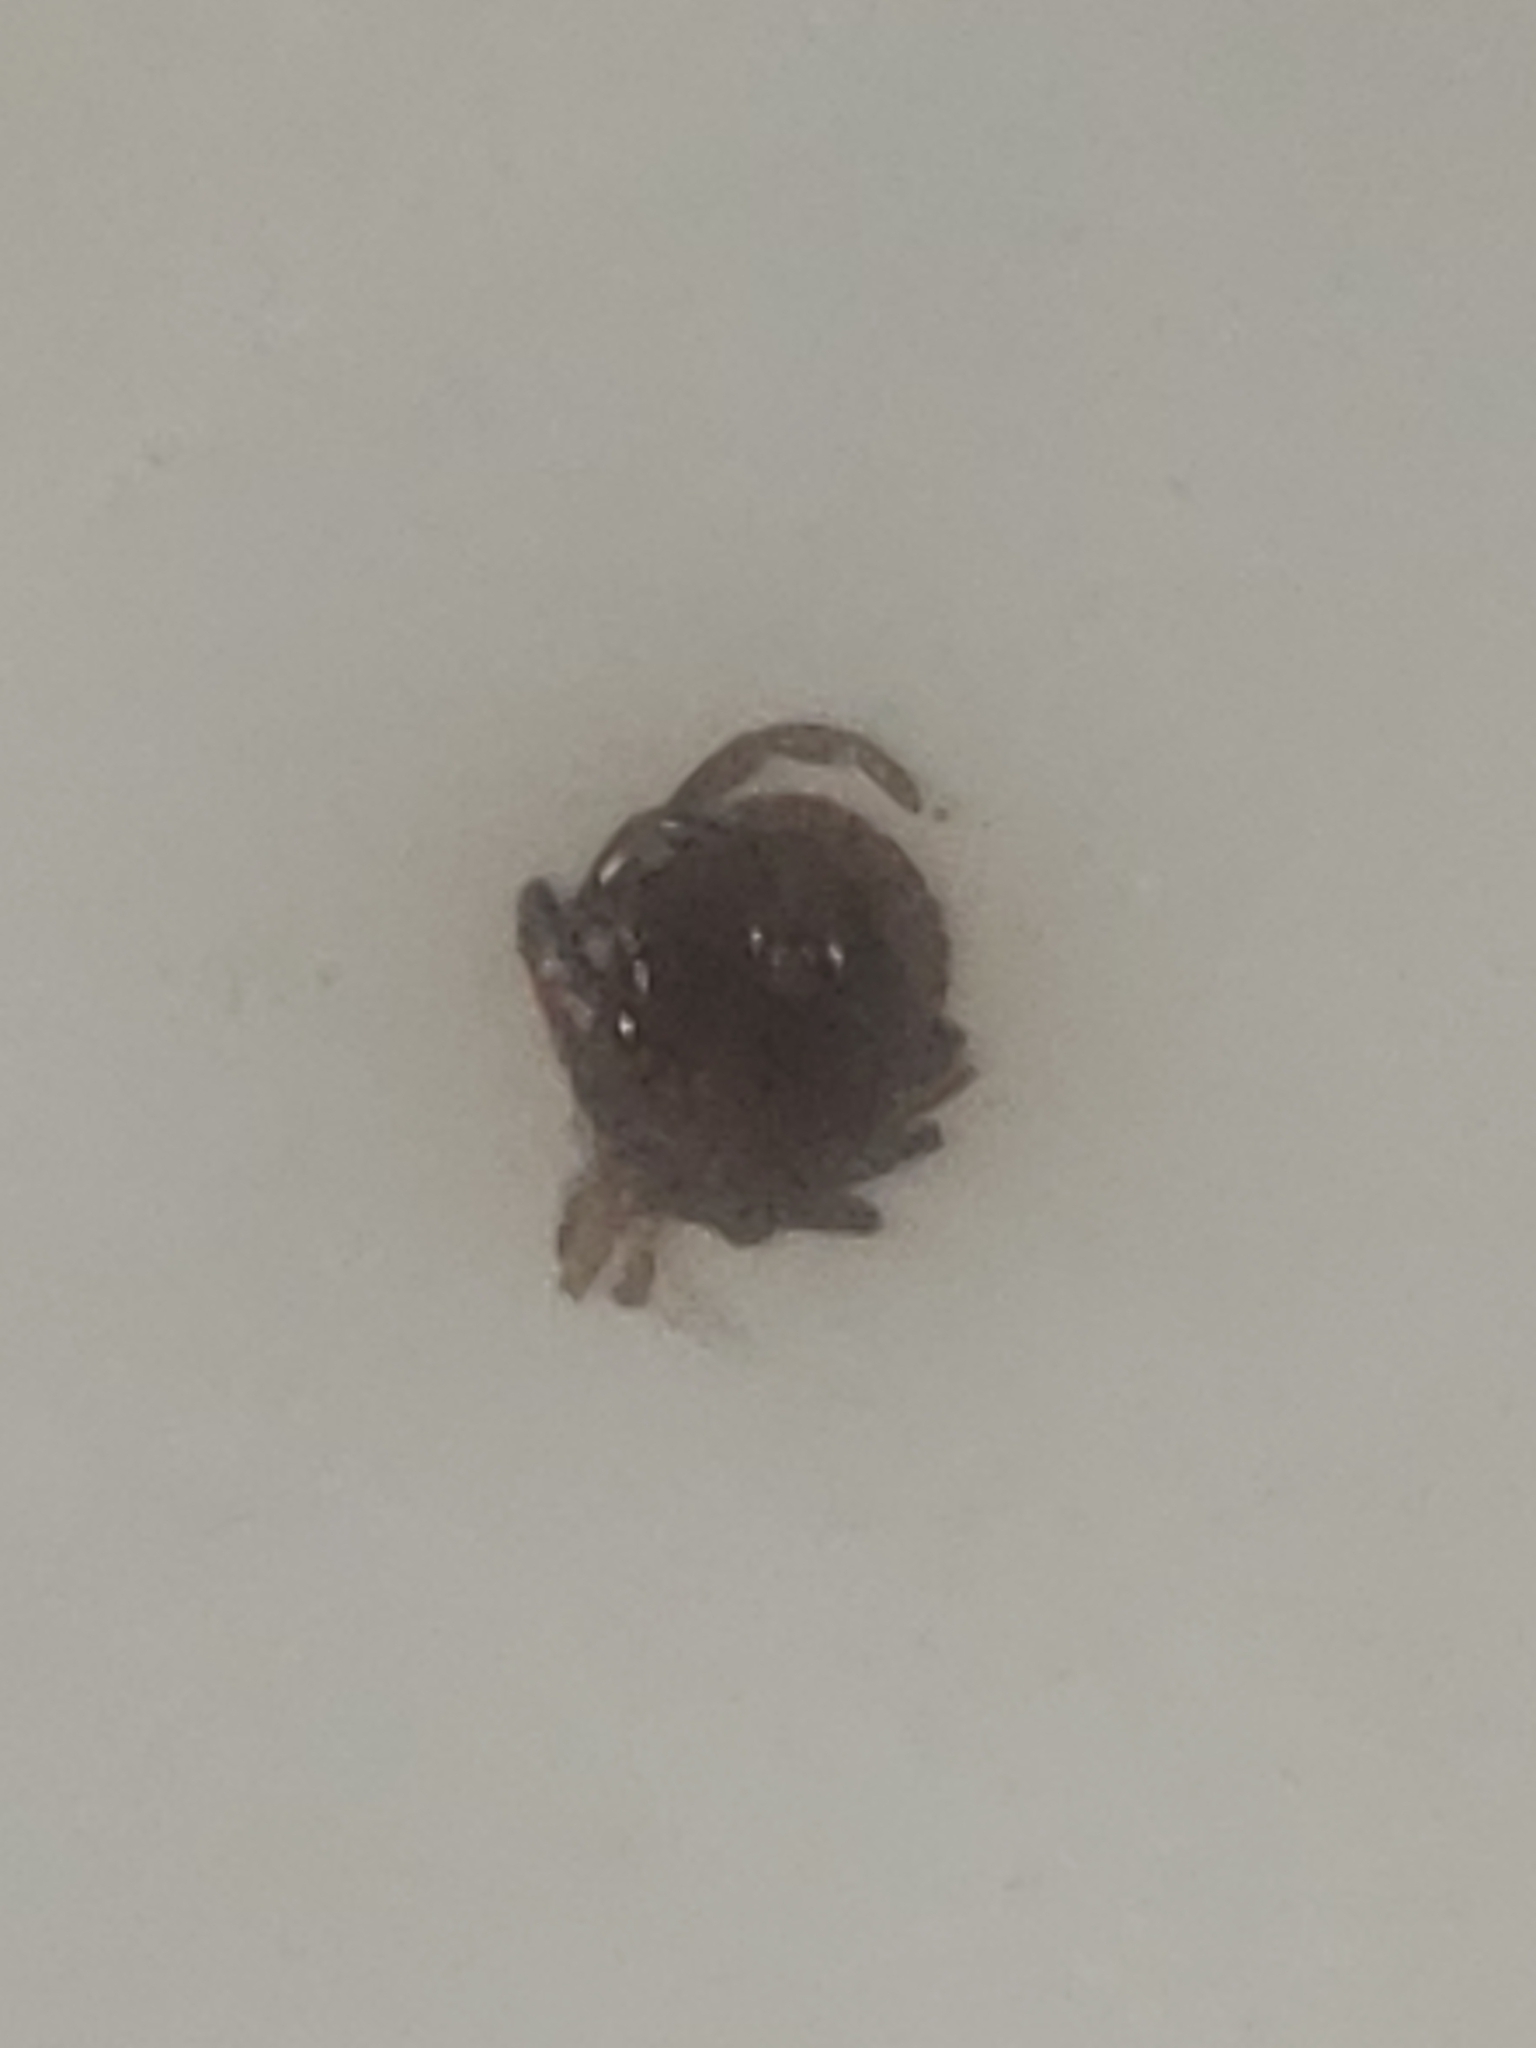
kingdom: Animalia
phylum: Arthropoda
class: Arachnida
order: Ixodida
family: Ixodidae
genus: Amblyomma
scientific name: Amblyomma americanum
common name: Lone star tick
